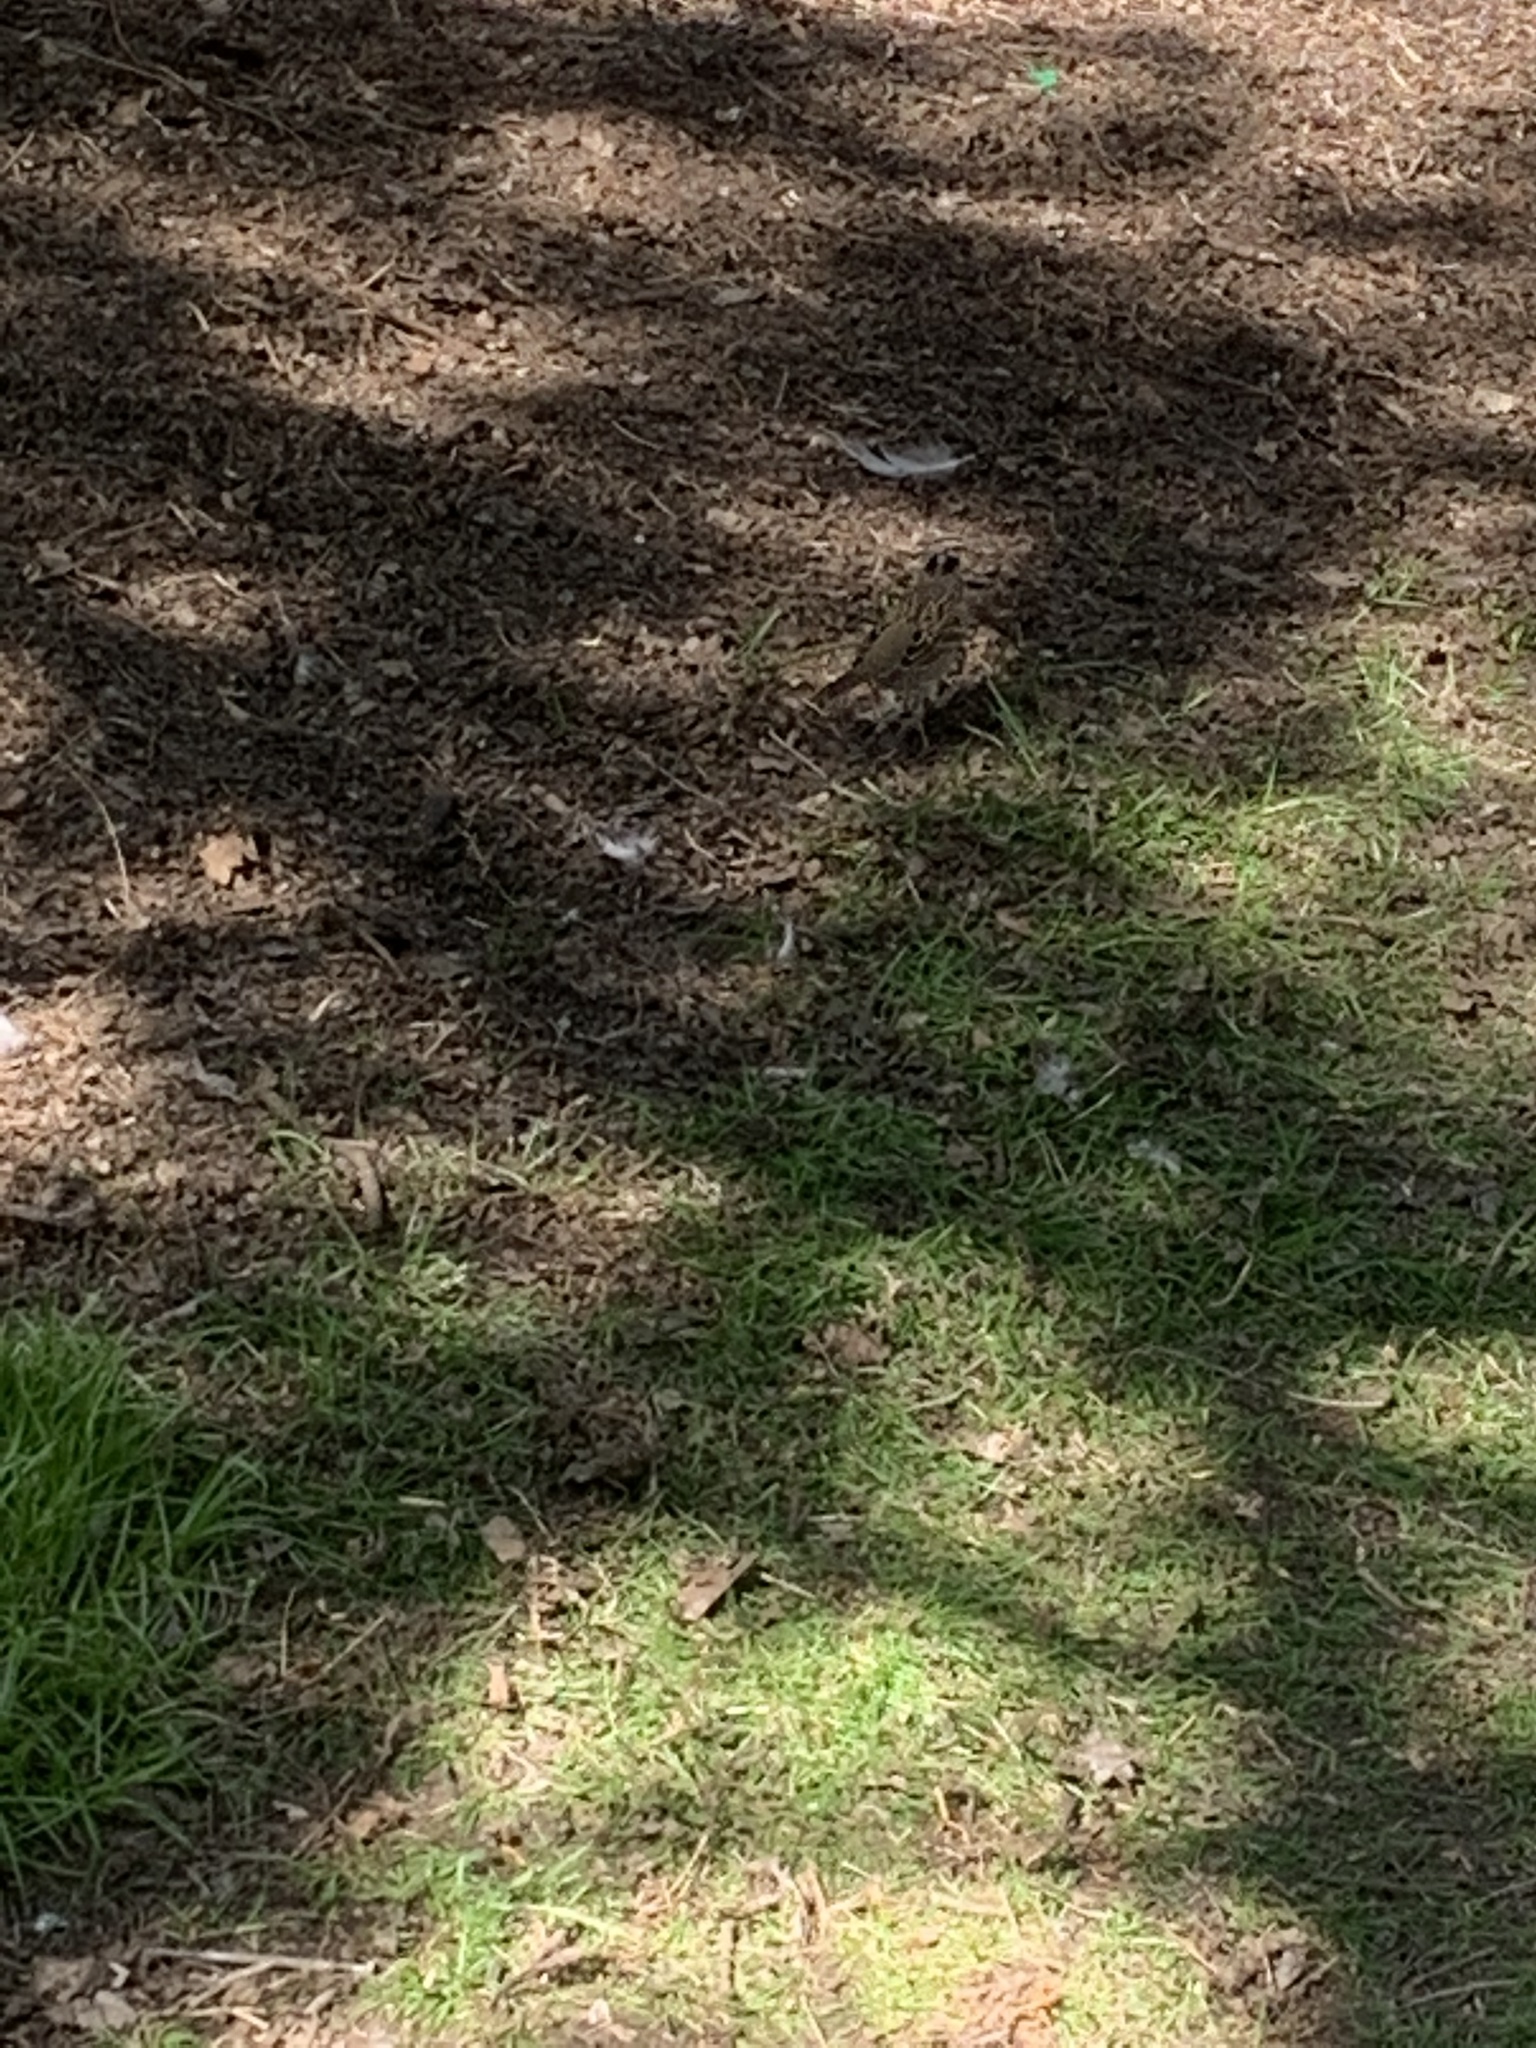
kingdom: Animalia
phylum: Chordata
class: Aves
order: Passeriformes
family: Passerellidae
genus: Zonotrichia
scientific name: Zonotrichia atricapilla
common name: Golden-crowned sparrow
